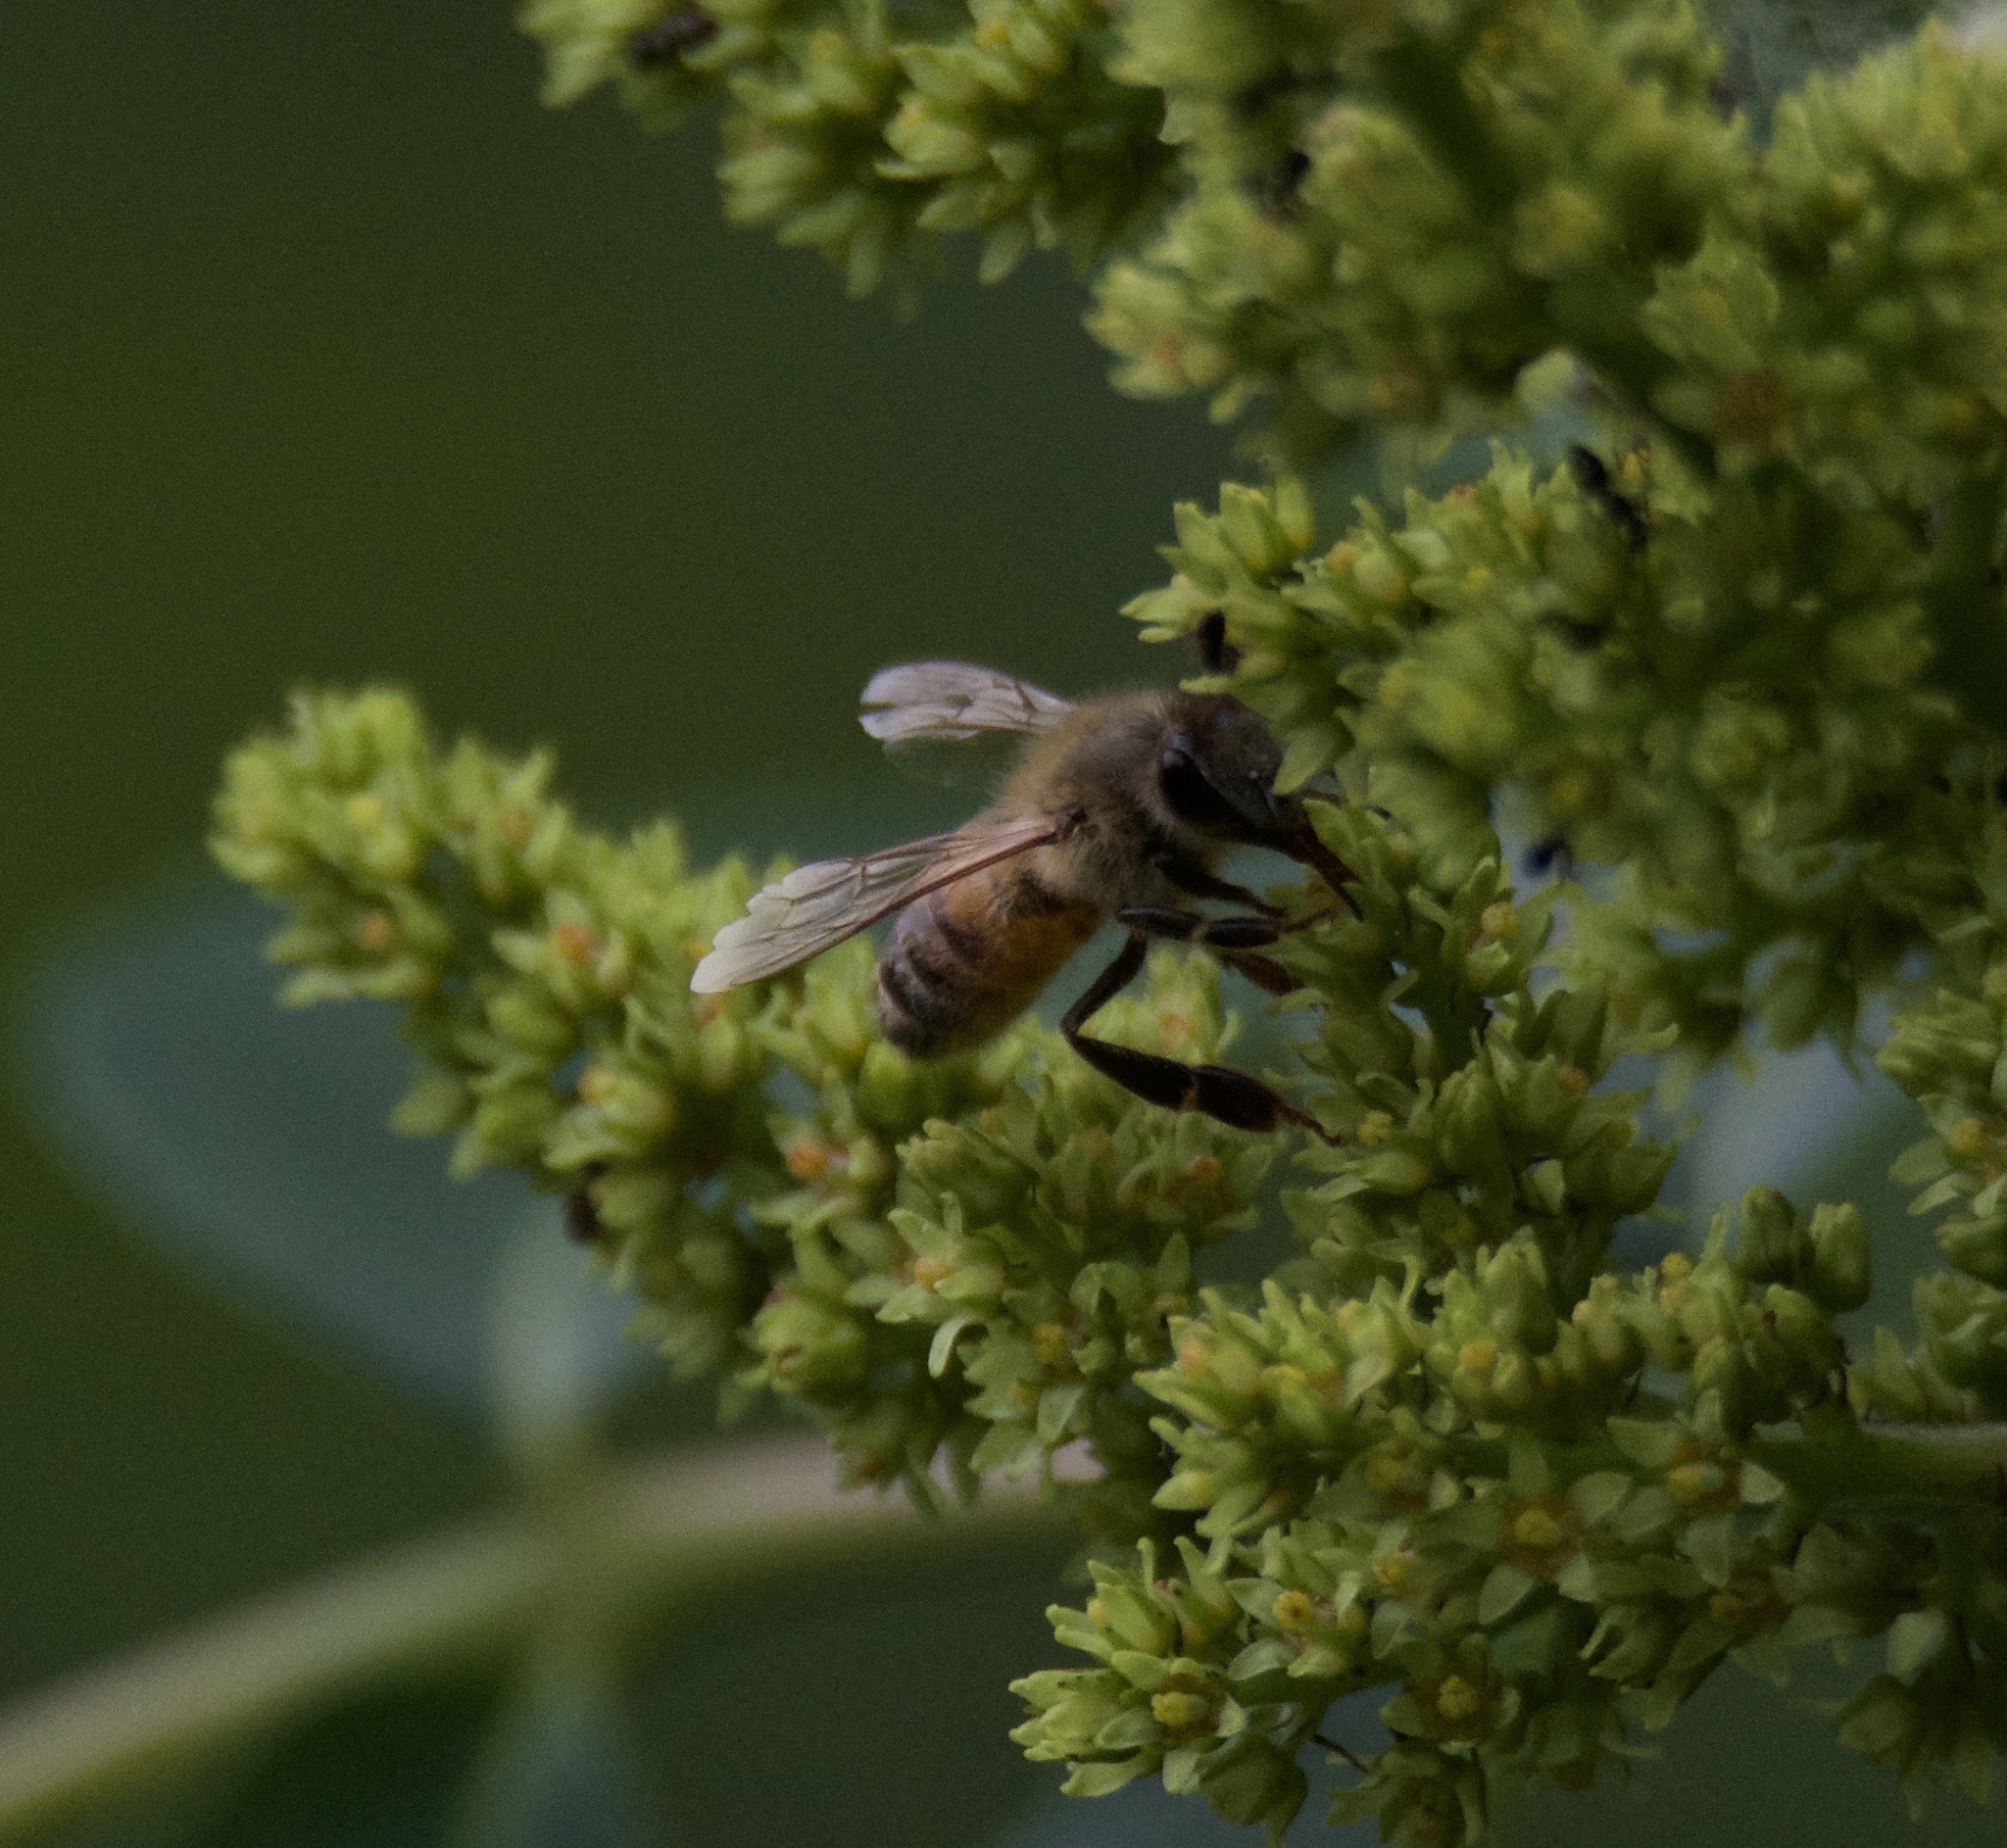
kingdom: Animalia
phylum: Arthropoda
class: Insecta
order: Hymenoptera
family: Apidae
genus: Apis
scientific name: Apis mellifera
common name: Honey bee
